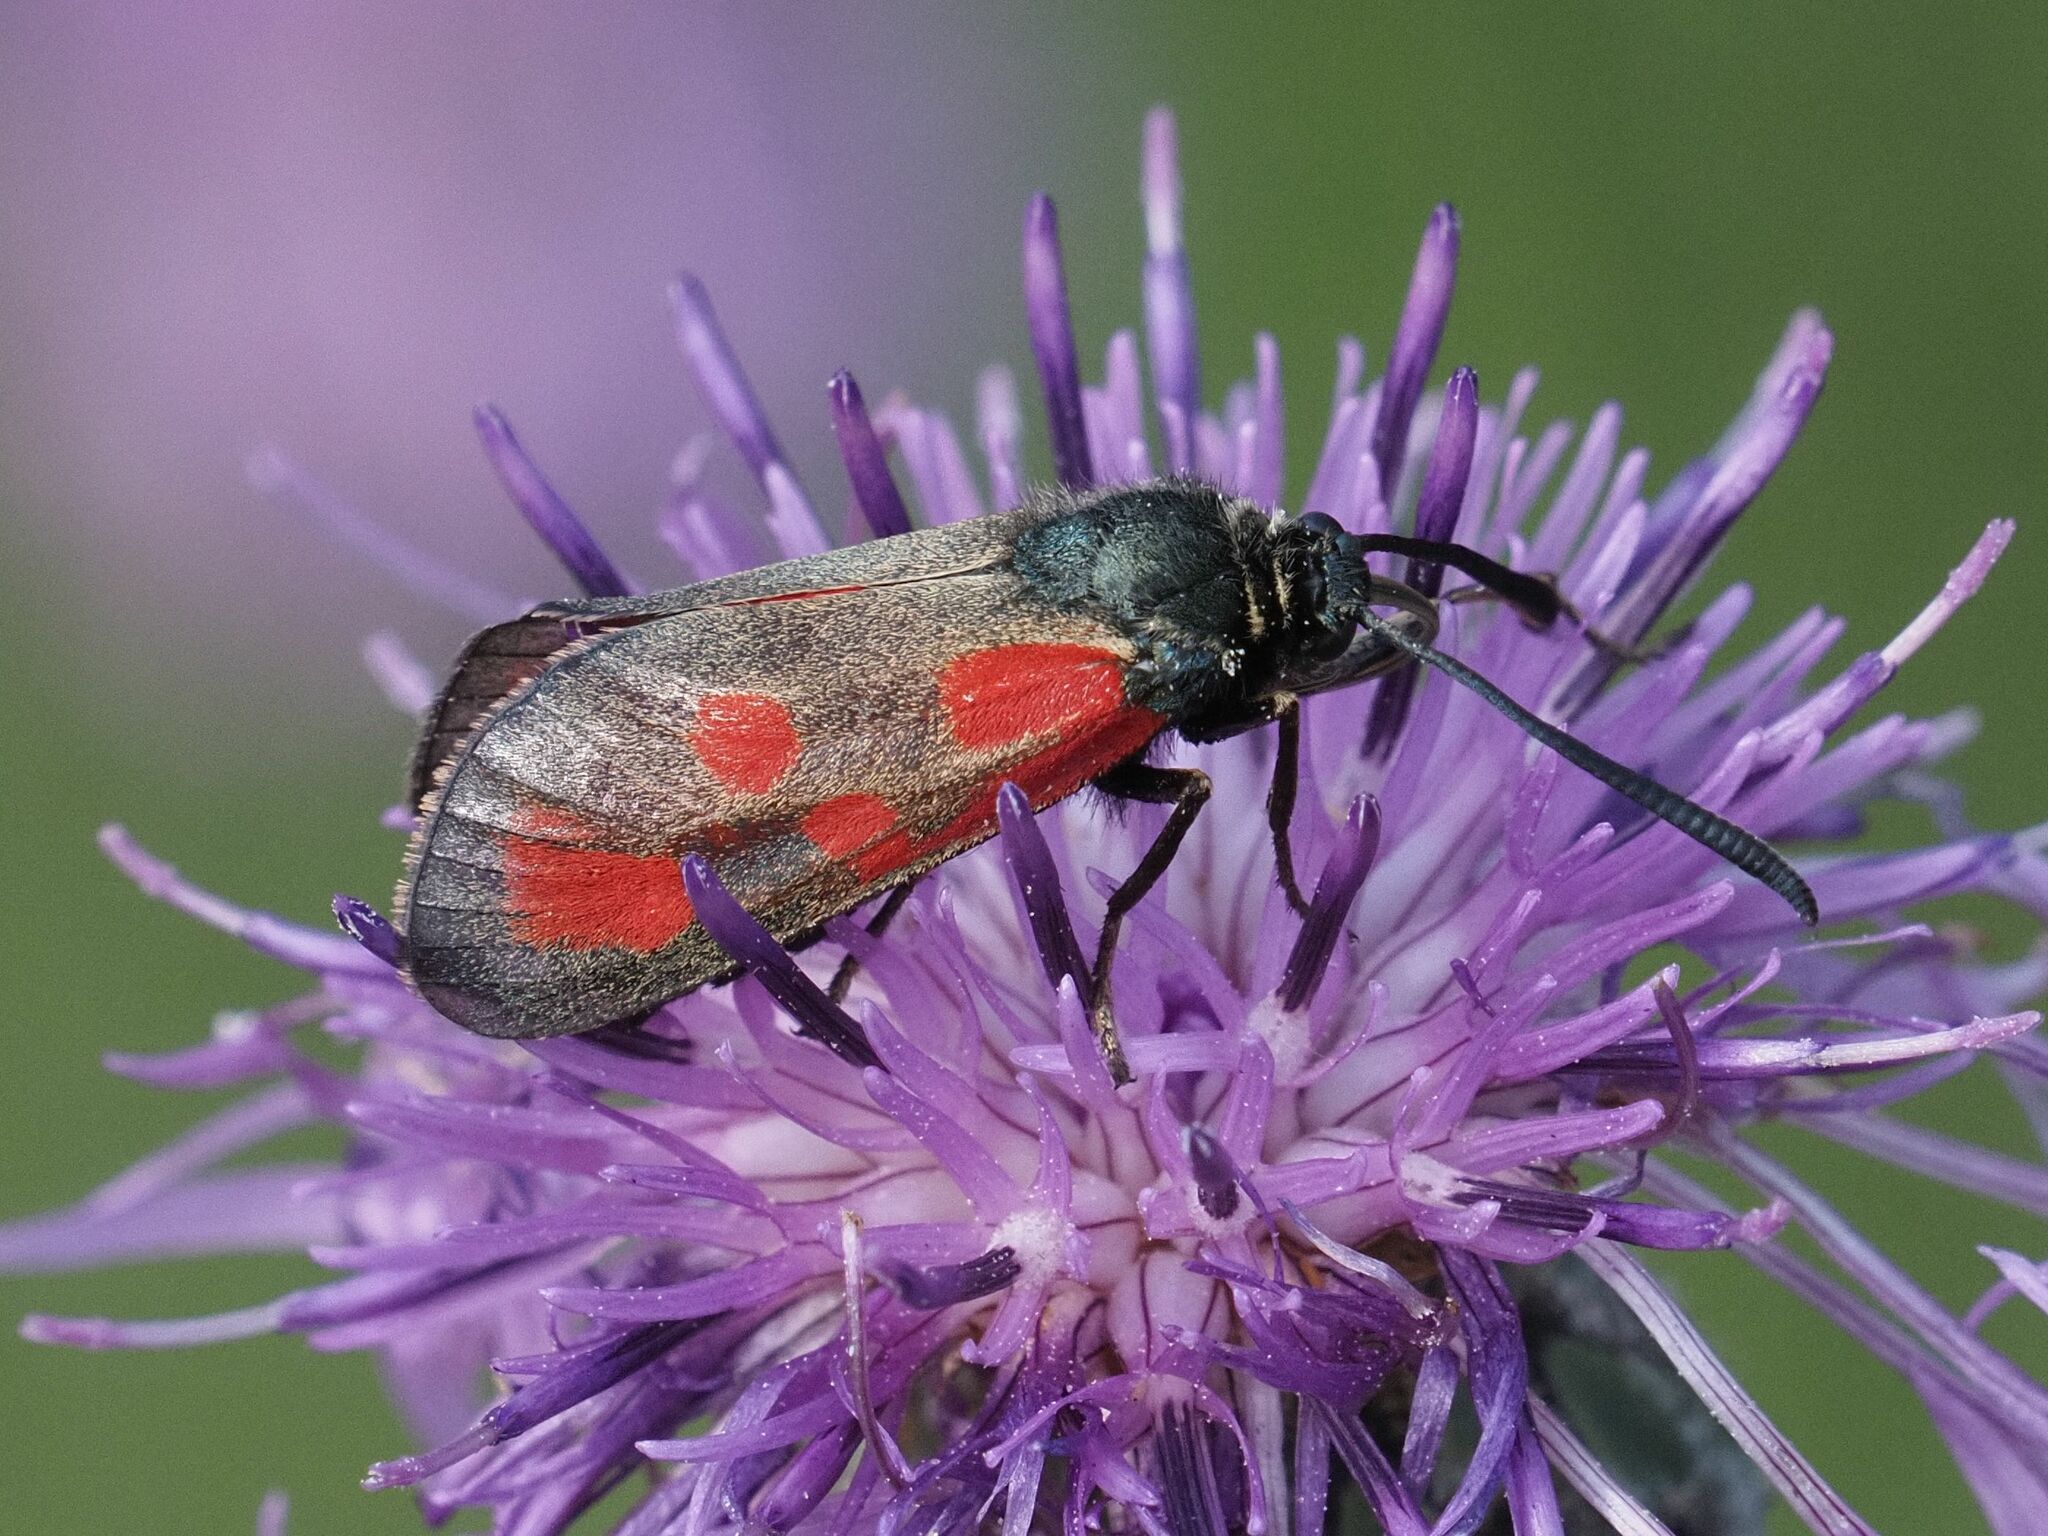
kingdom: Animalia
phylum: Arthropoda
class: Insecta
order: Lepidoptera
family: Zygaenidae
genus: Zygaena
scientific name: Zygaena loti
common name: Slender scotch burnet
